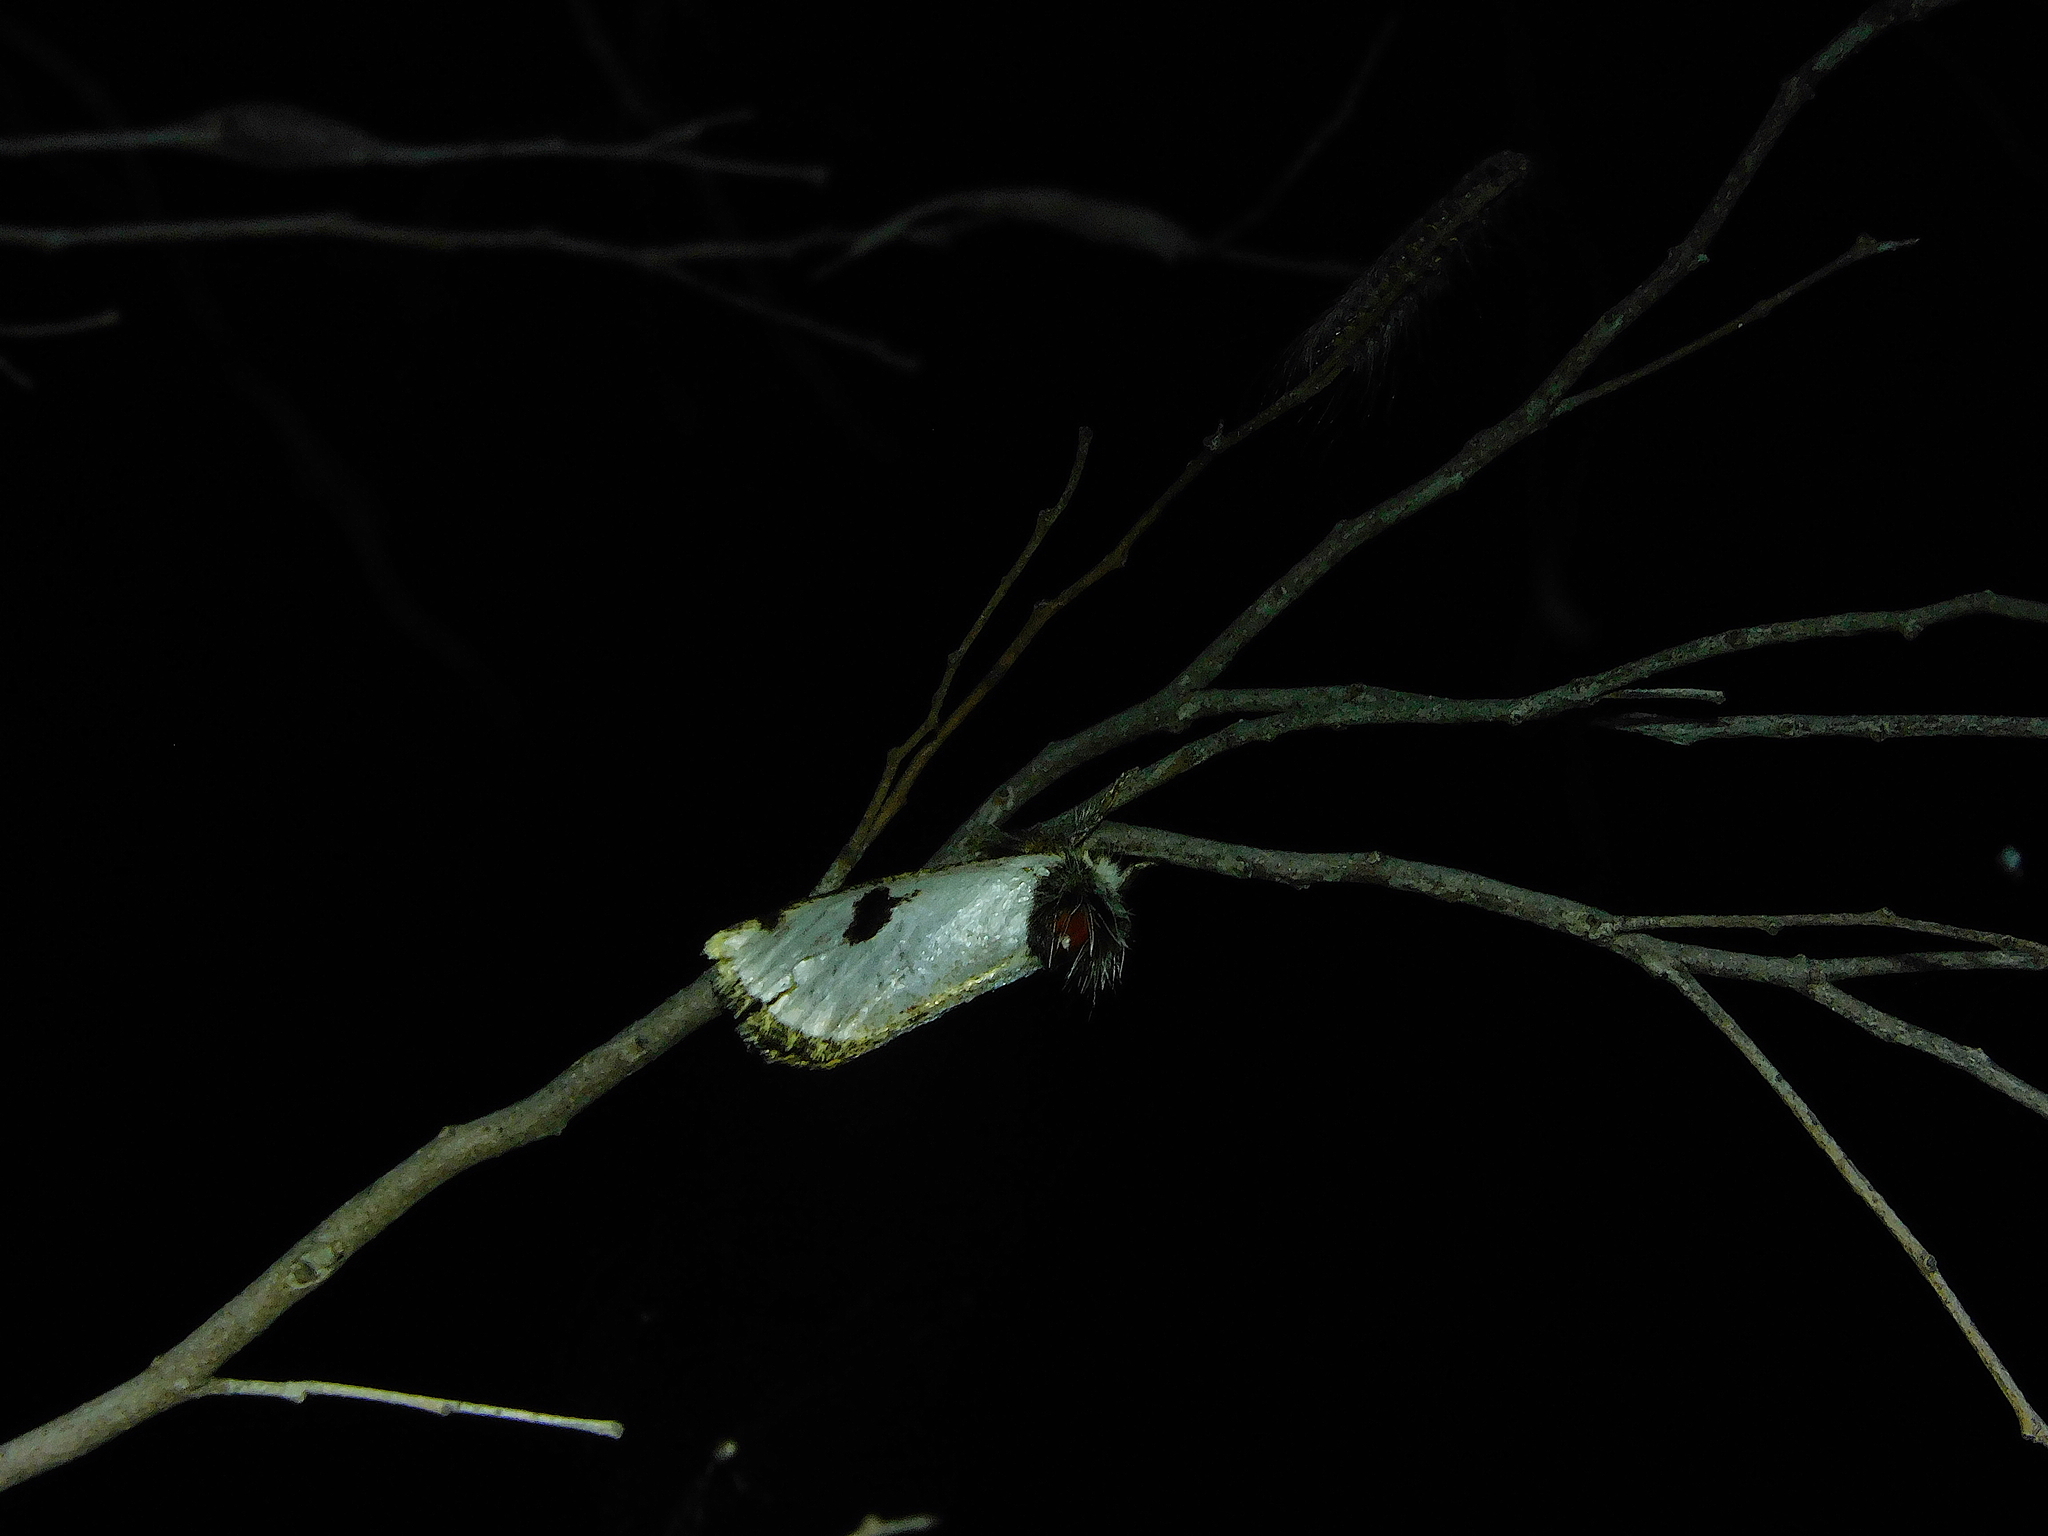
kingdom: Animalia
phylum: Arthropoda
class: Insecta
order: Lepidoptera
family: Notodontidae
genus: Epicoma
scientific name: Epicoma melanospila
